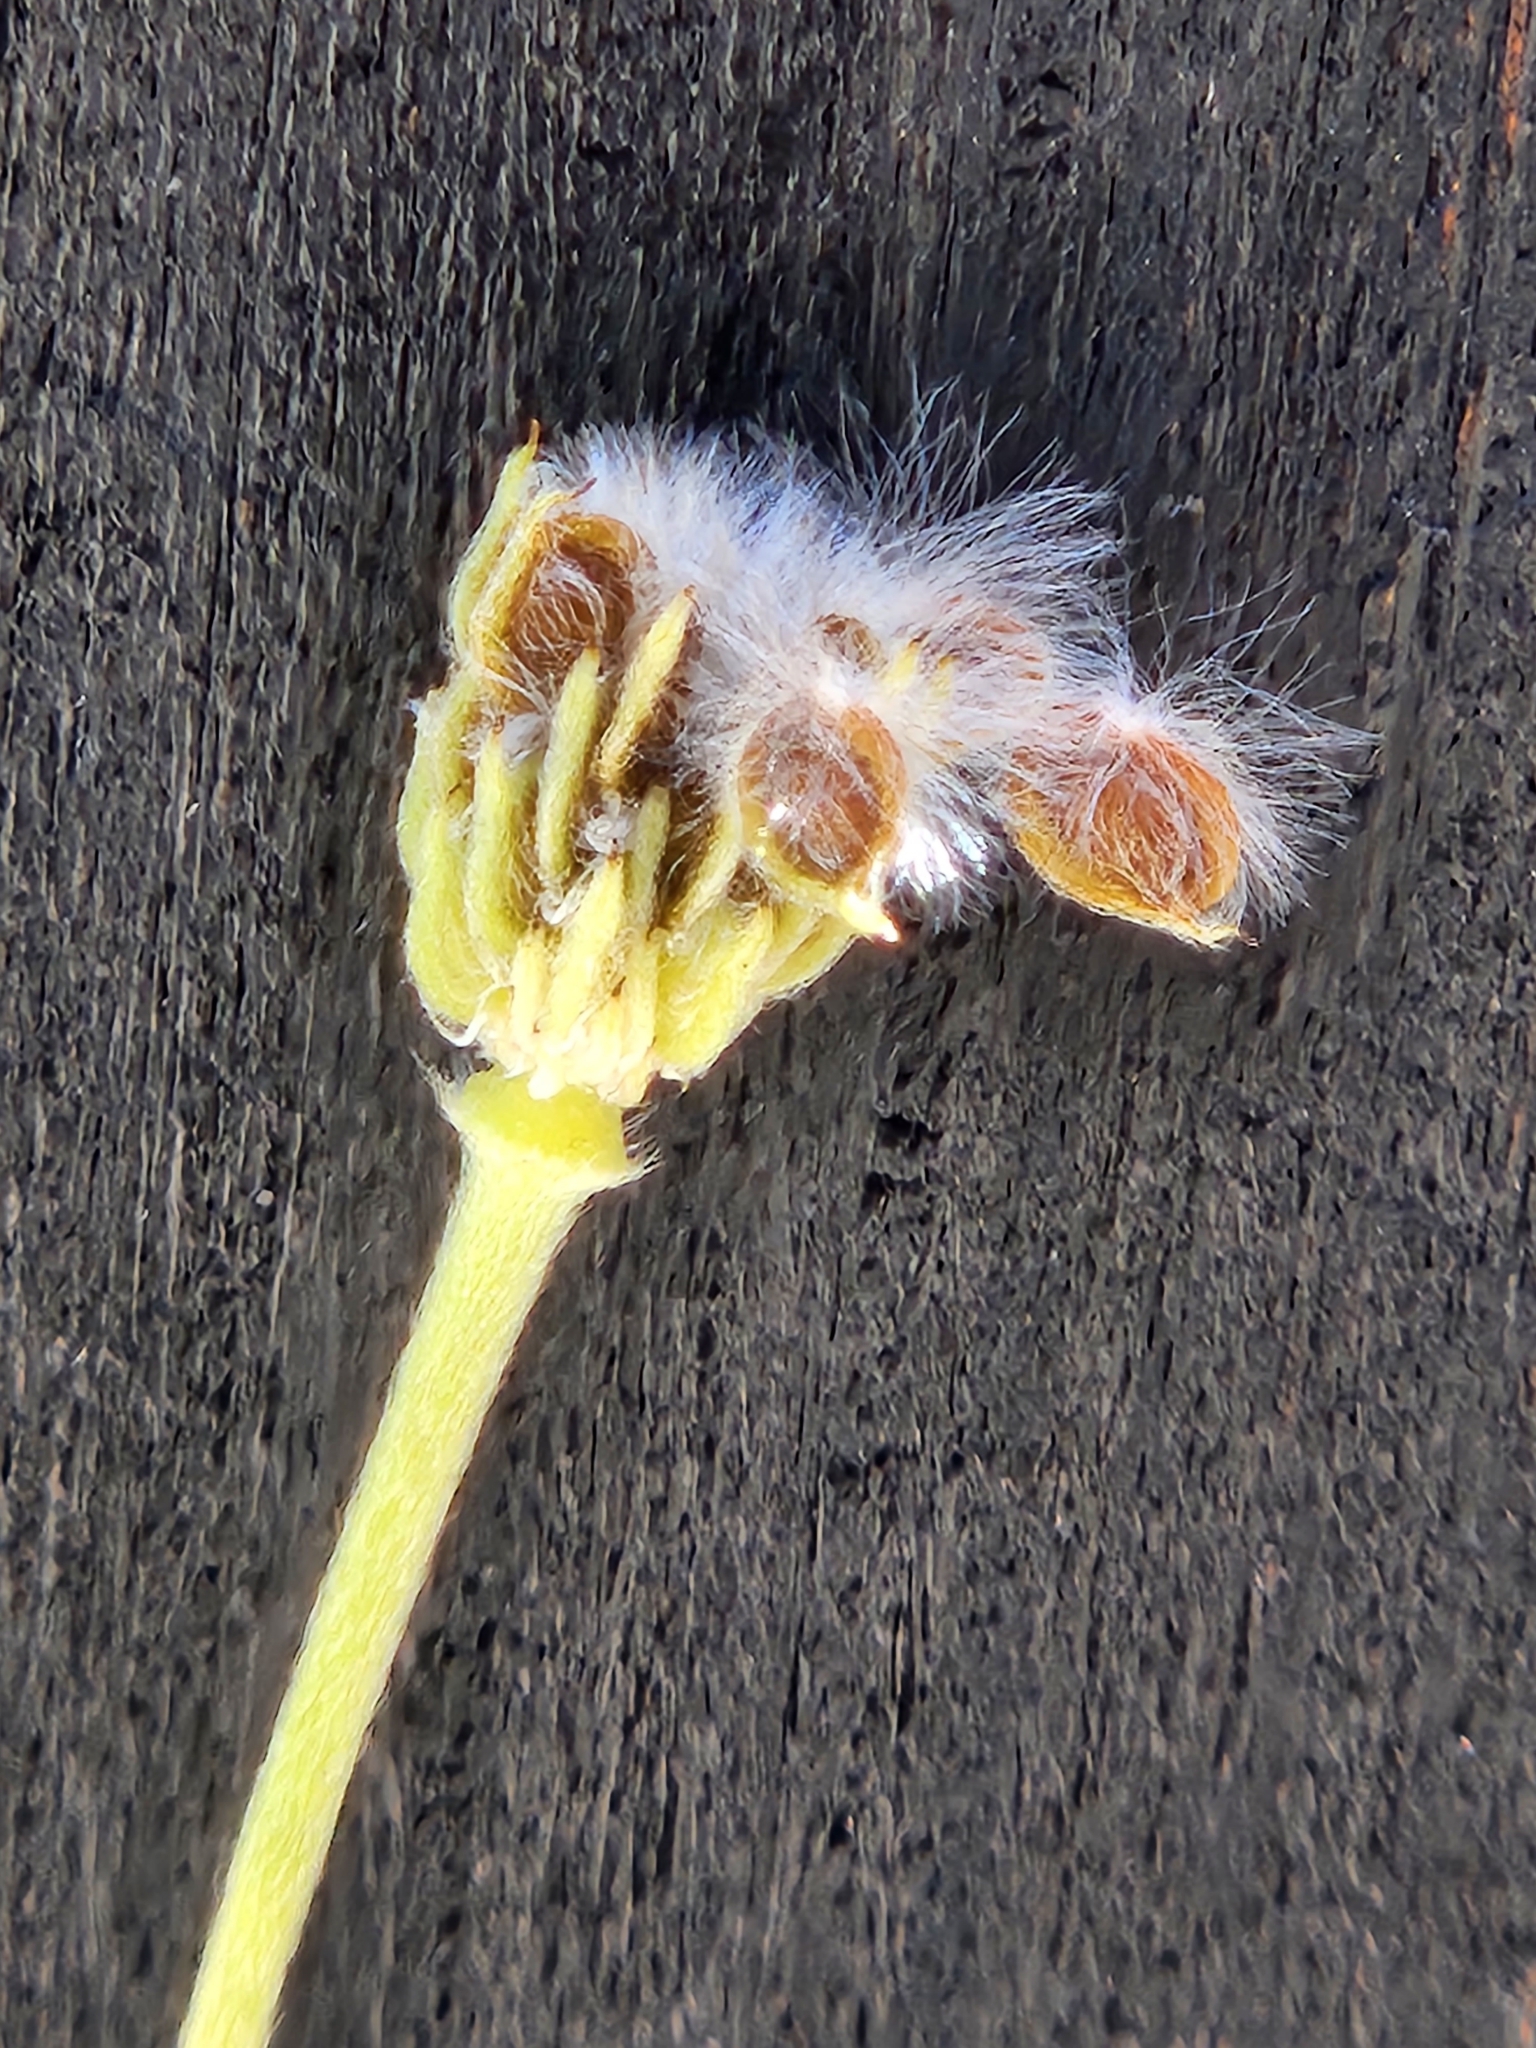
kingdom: Plantae
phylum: Tracheophyta
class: Magnoliopsida
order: Ranunculales
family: Ranunculaceae
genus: Anemone
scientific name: Anemone edwardsiana
